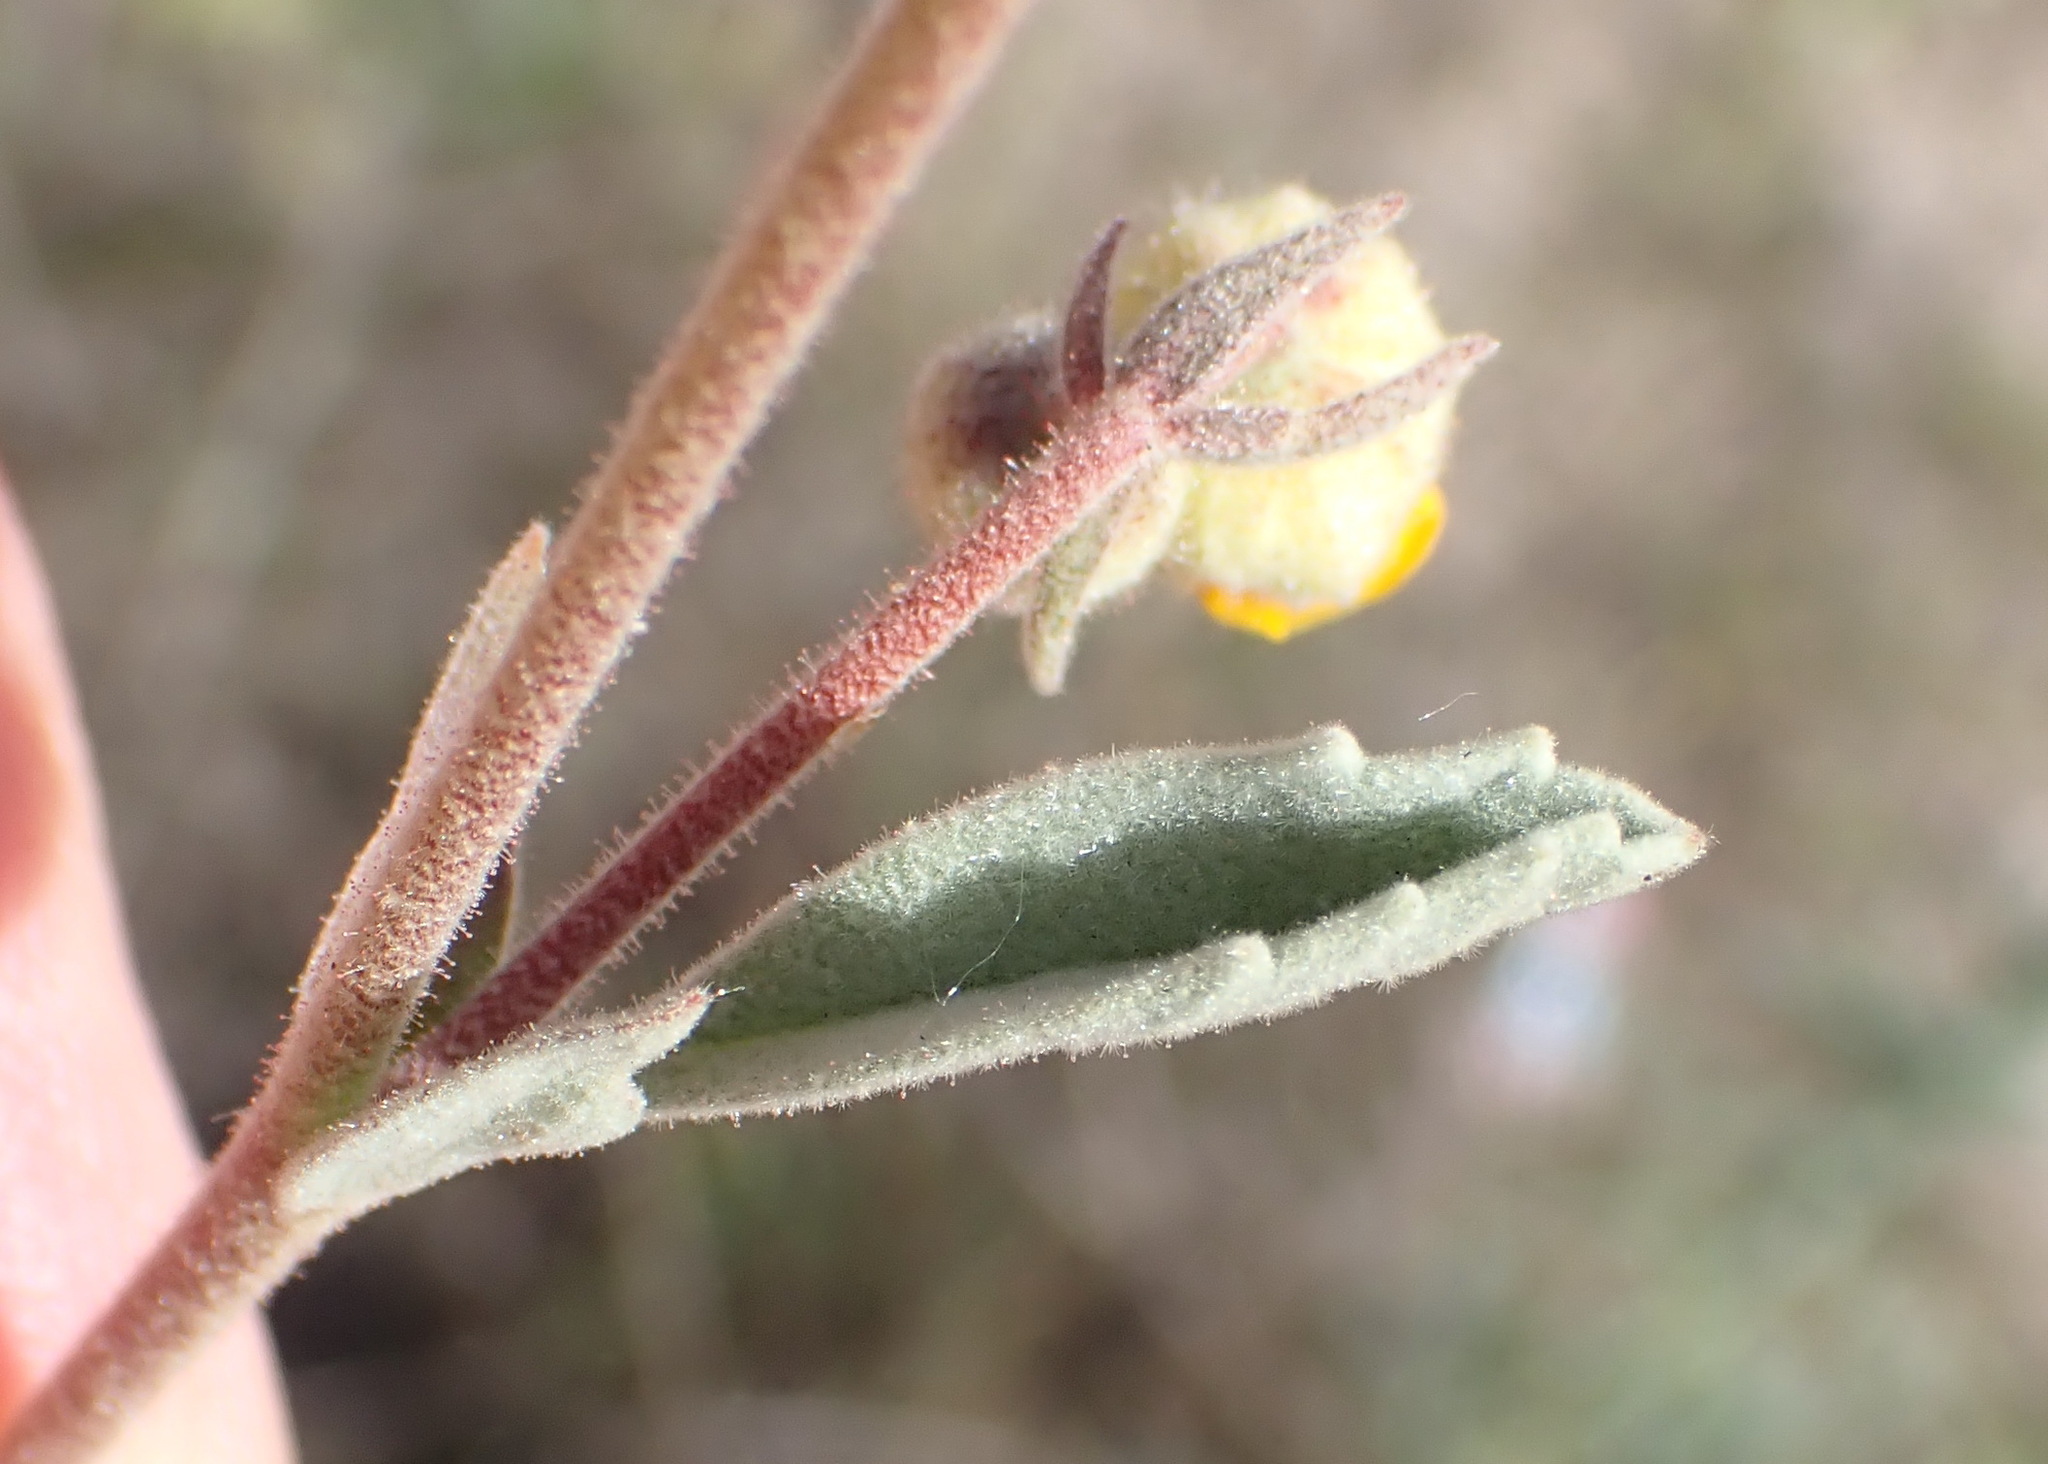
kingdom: Plantae
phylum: Tracheophyta
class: Magnoliopsida
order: Malvales
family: Malvaceae
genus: Hermannia
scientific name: Hermannia incana
